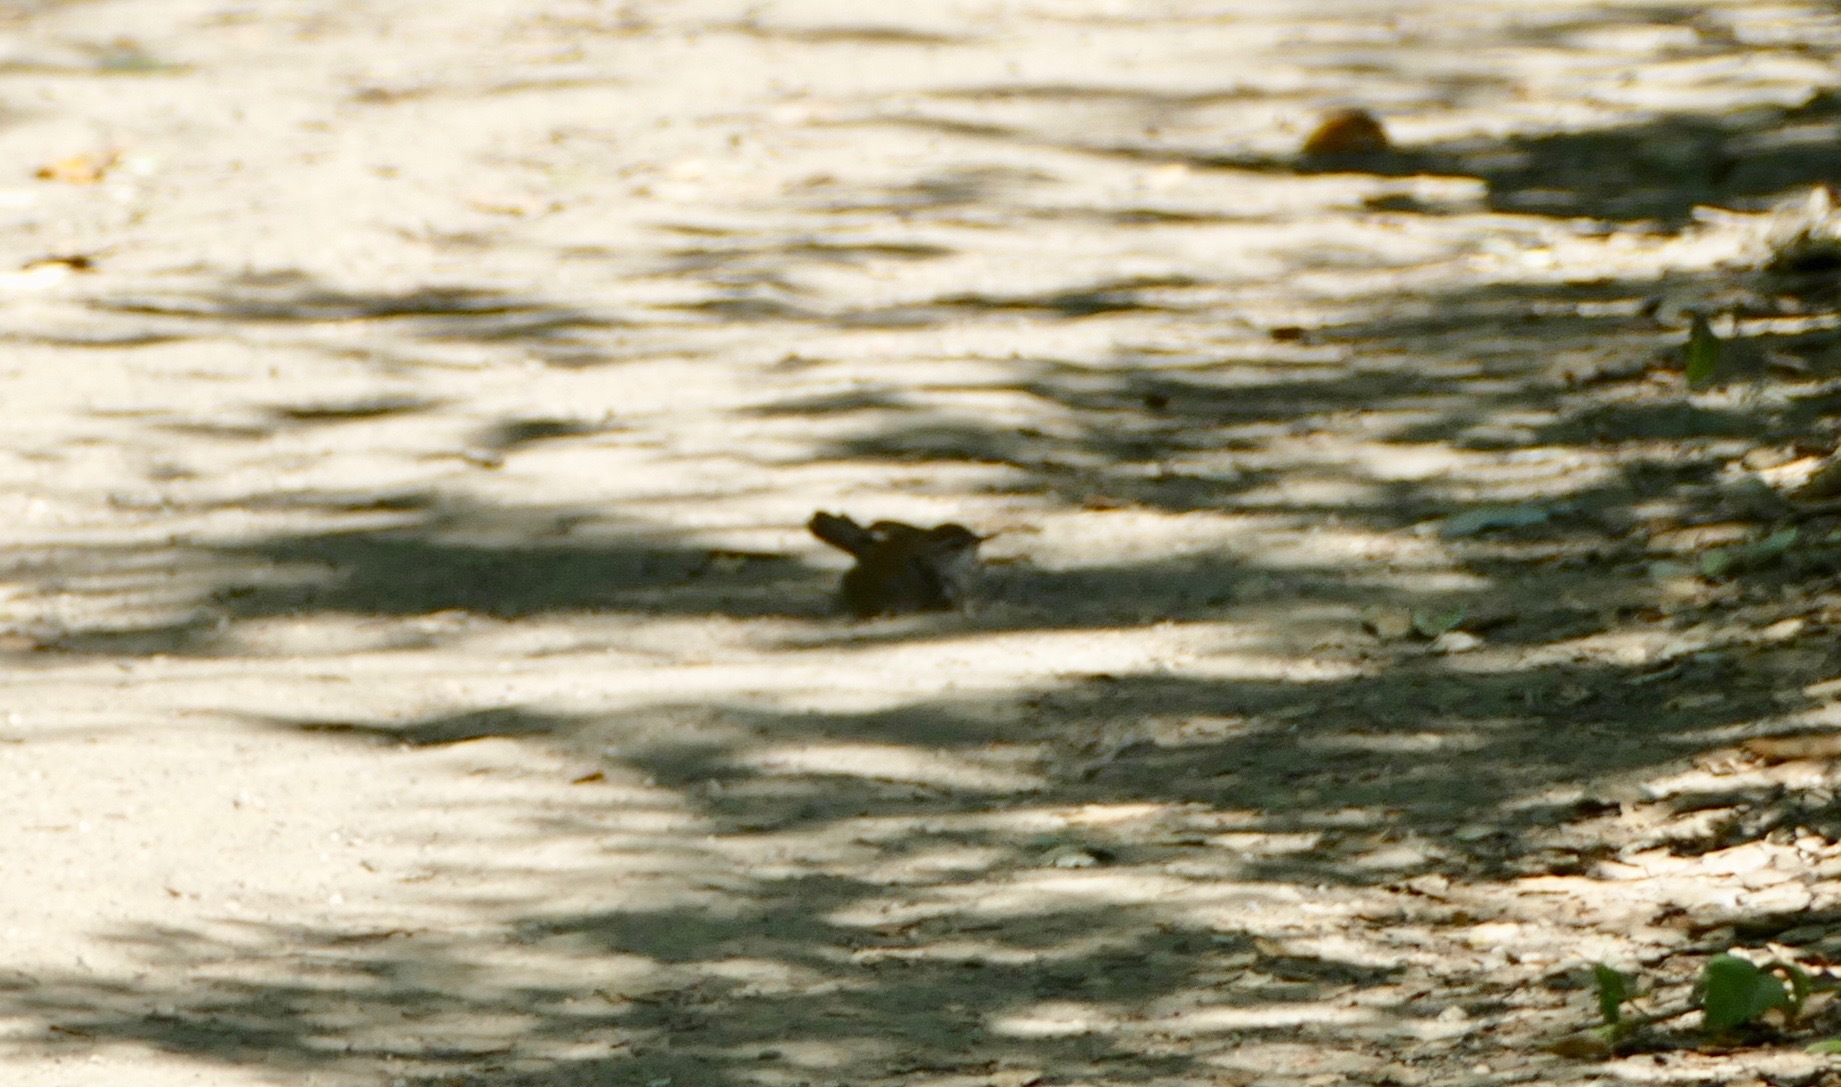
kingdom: Animalia
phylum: Chordata
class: Aves
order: Passeriformes
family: Troglodytidae
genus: Thryomanes
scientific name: Thryomanes bewickii
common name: Bewick's wren
